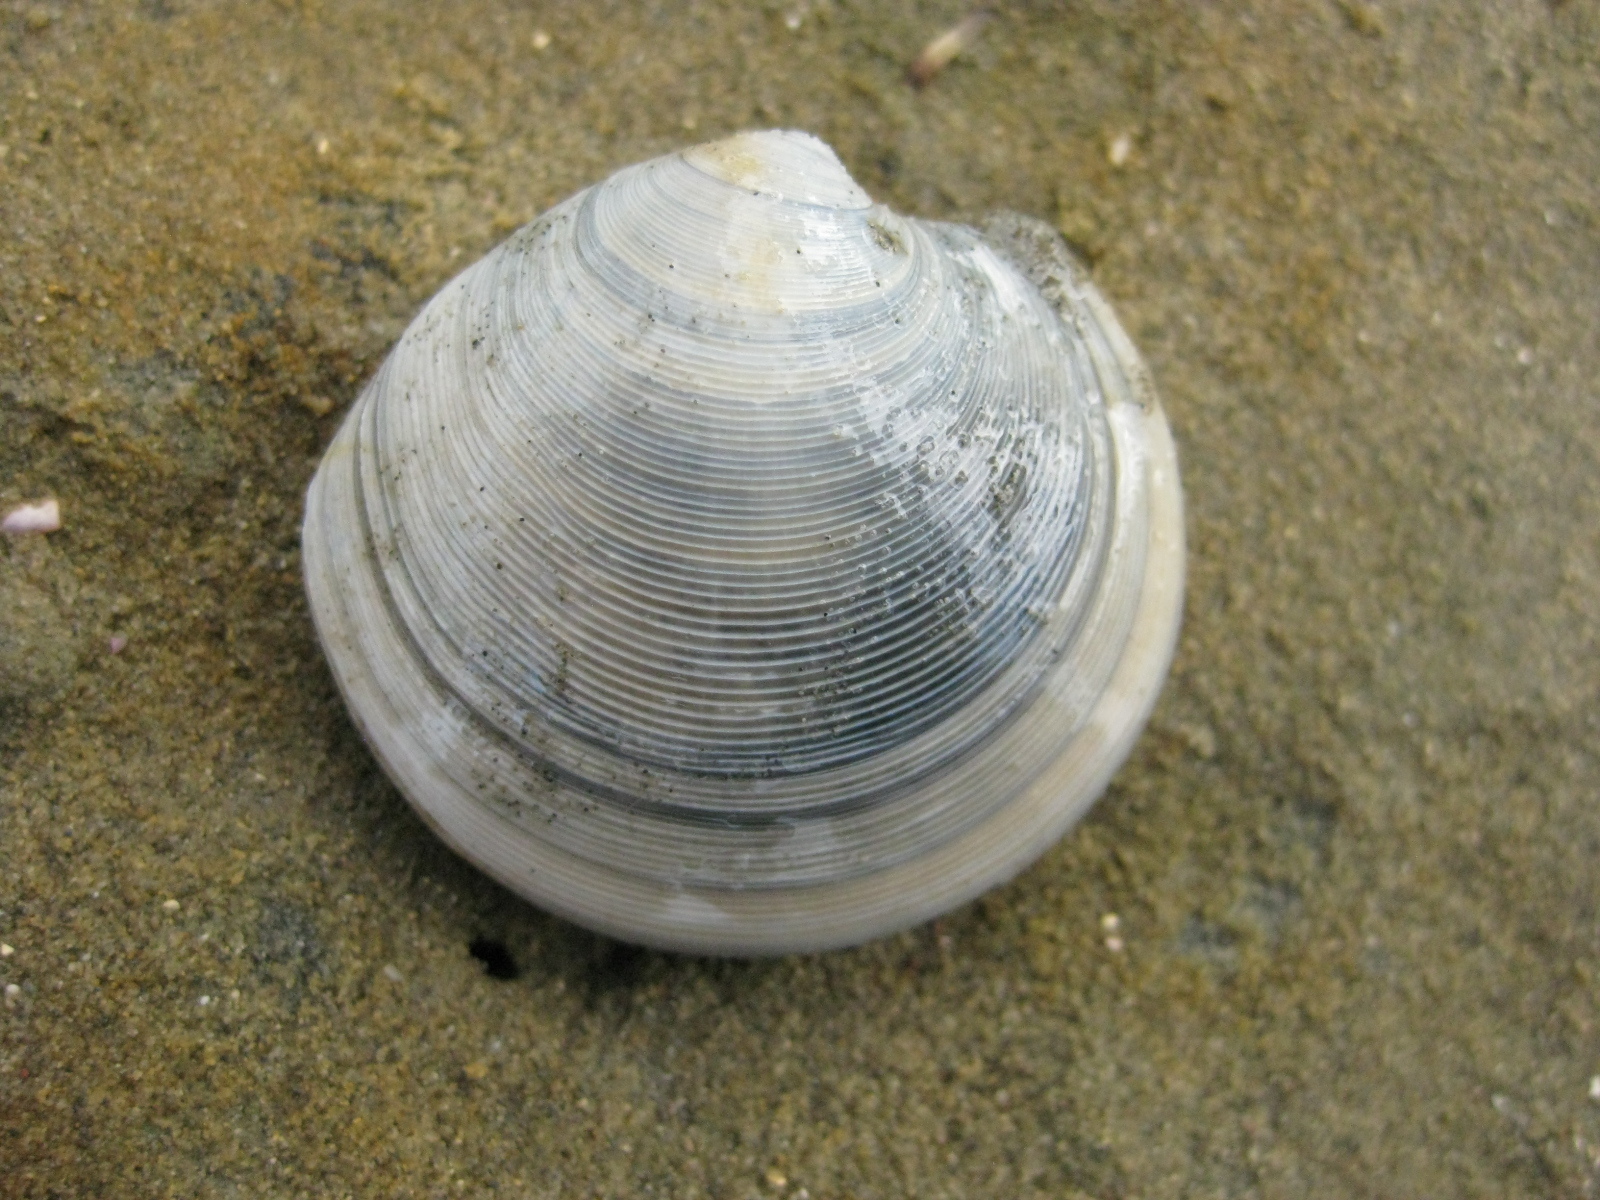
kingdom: Animalia
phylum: Mollusca
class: Bivalvia
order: Venerida
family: Veneridae
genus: Dosinia
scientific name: Dosinia subrosea
